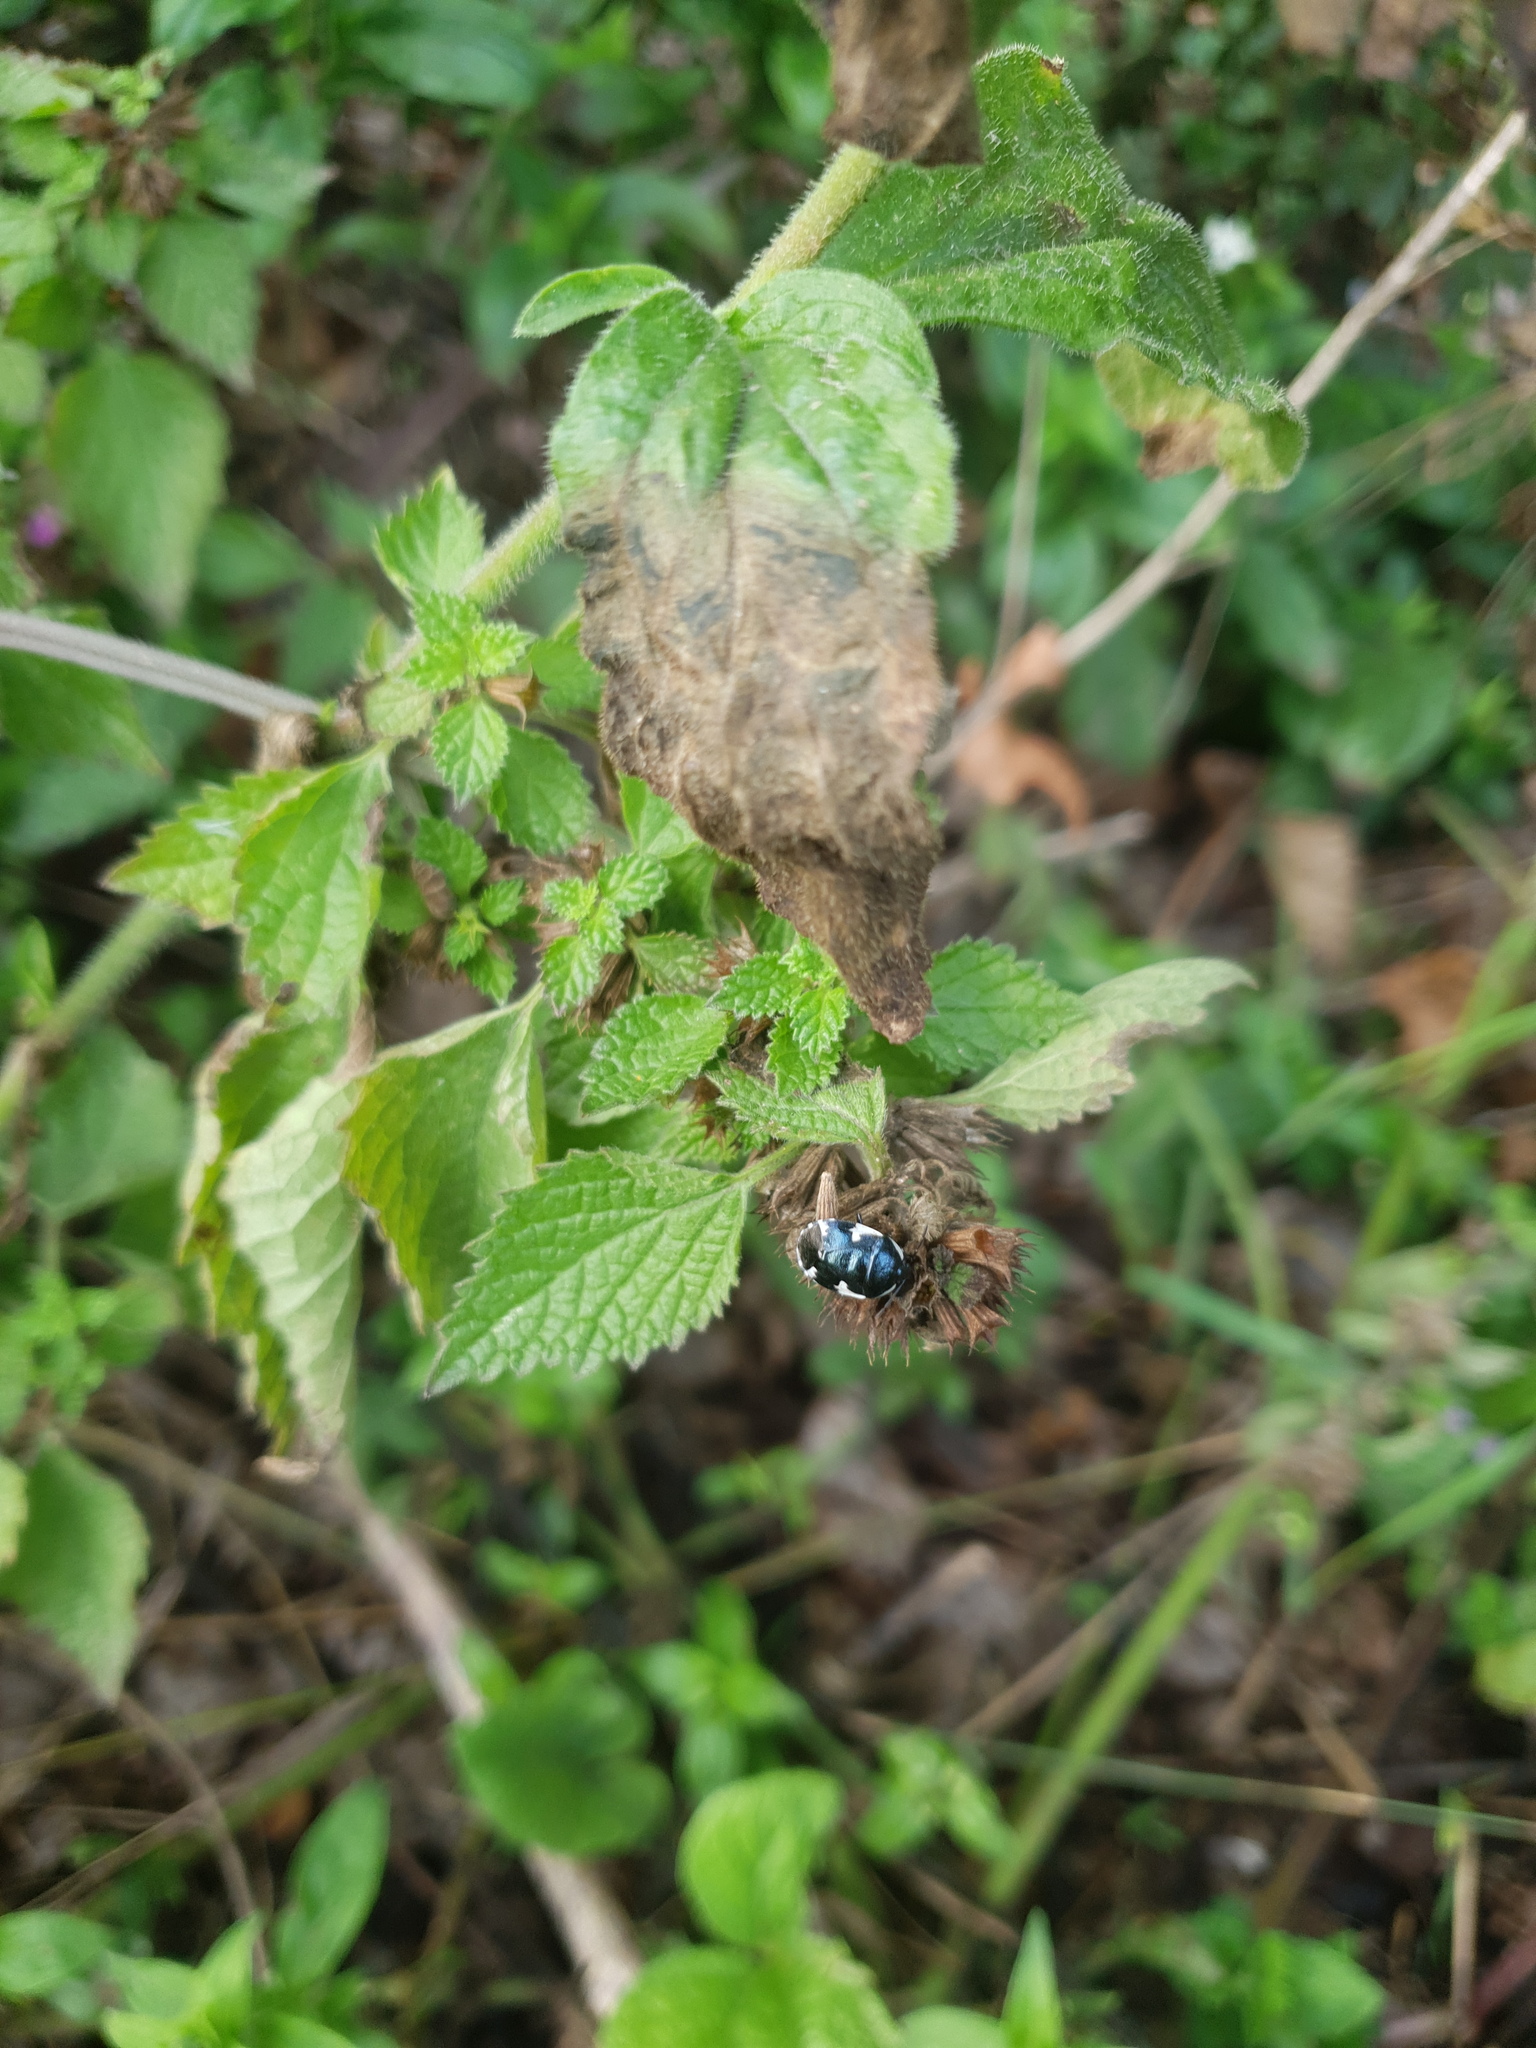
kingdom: Animalia
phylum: Arthropoda
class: Insecta
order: Hemiptera
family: Cydnidae
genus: Tritomegas
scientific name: Tritomegas sexmaculatus
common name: Rambur's pied shieldbug
